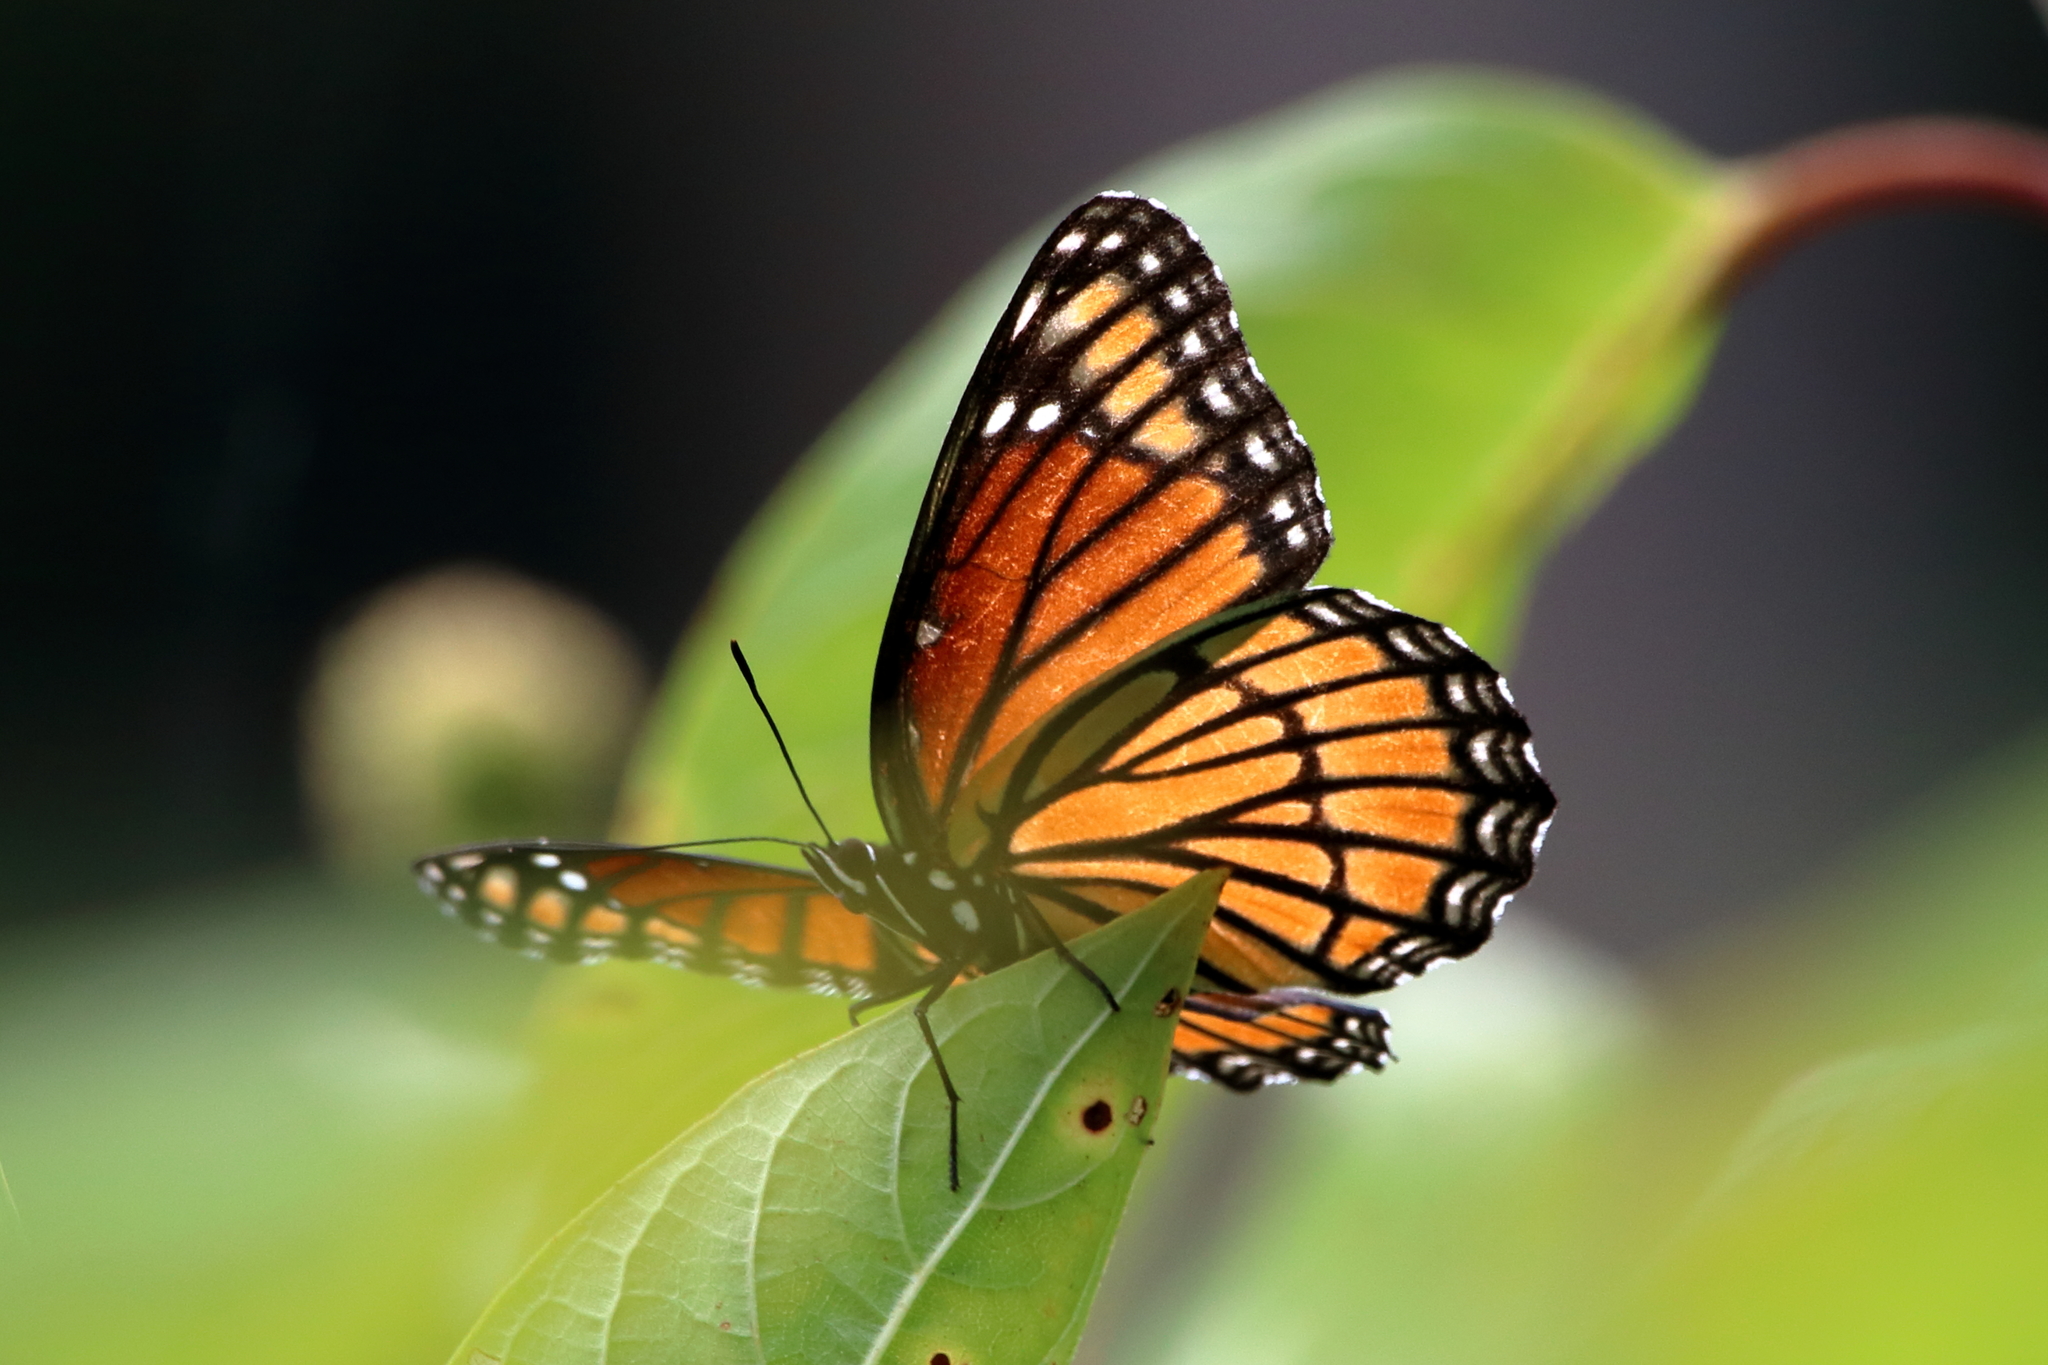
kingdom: Animalia
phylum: Arthropoda
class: Insecta
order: Lepidoptera
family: Nymphalidae
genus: Limenitis
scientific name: Limenitis archippus
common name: Viceroy
